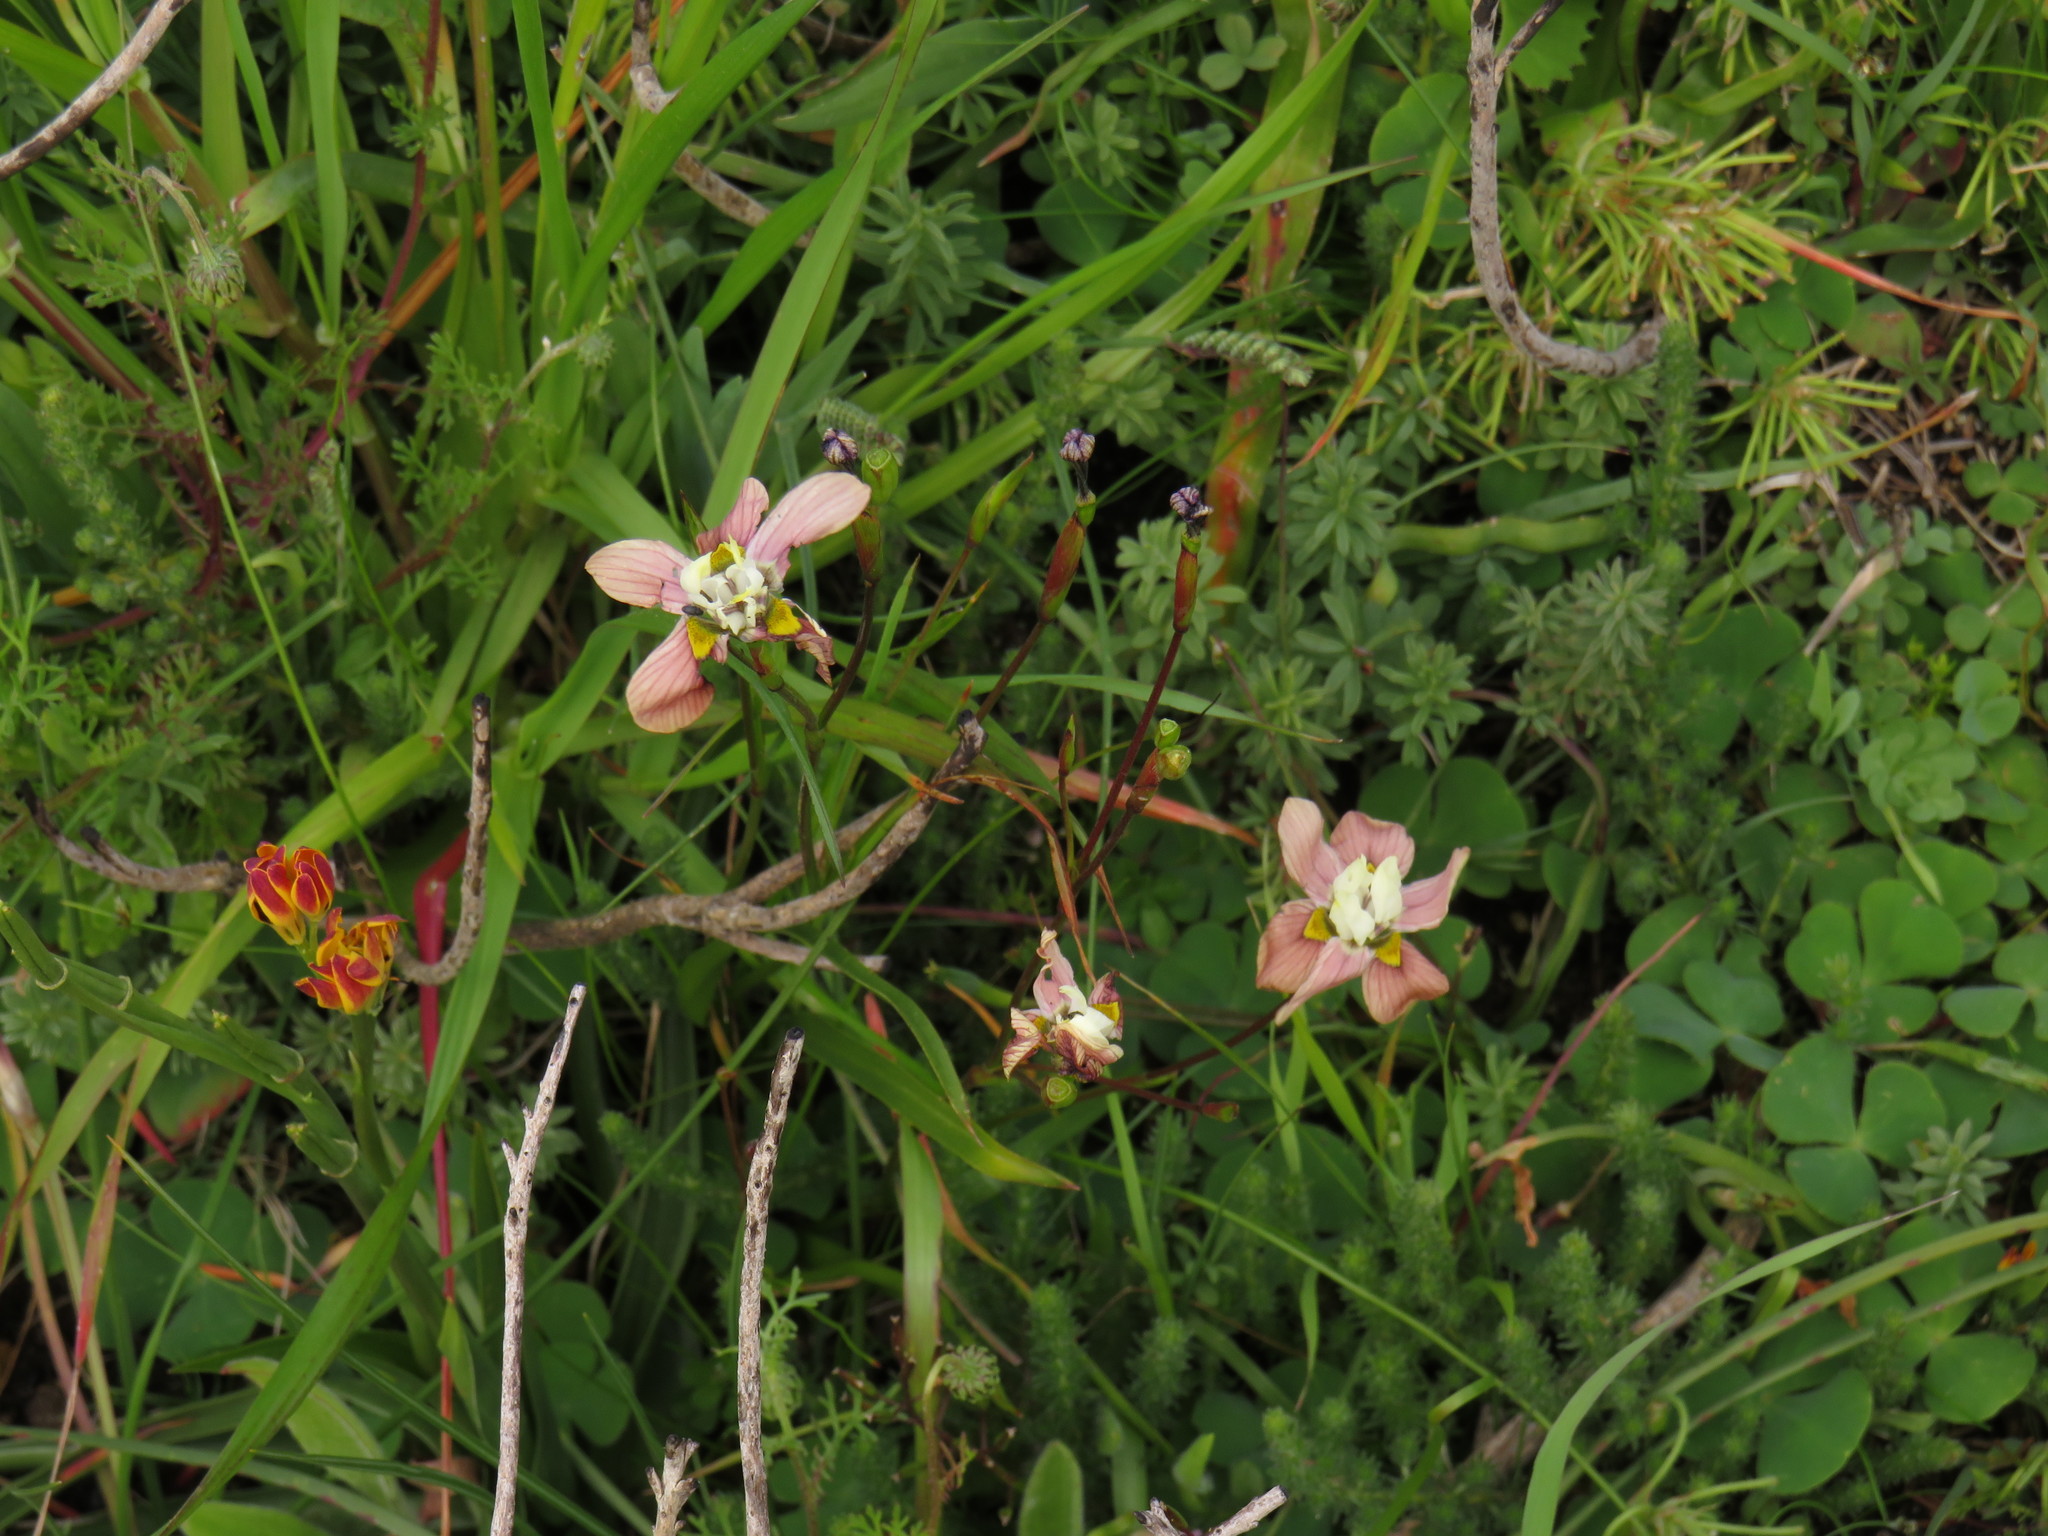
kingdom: Plantae
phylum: Tracheophyta
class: Liliopsida
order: Asparagales
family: Iridaceae
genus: Moraea
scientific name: Moraea gawleri
